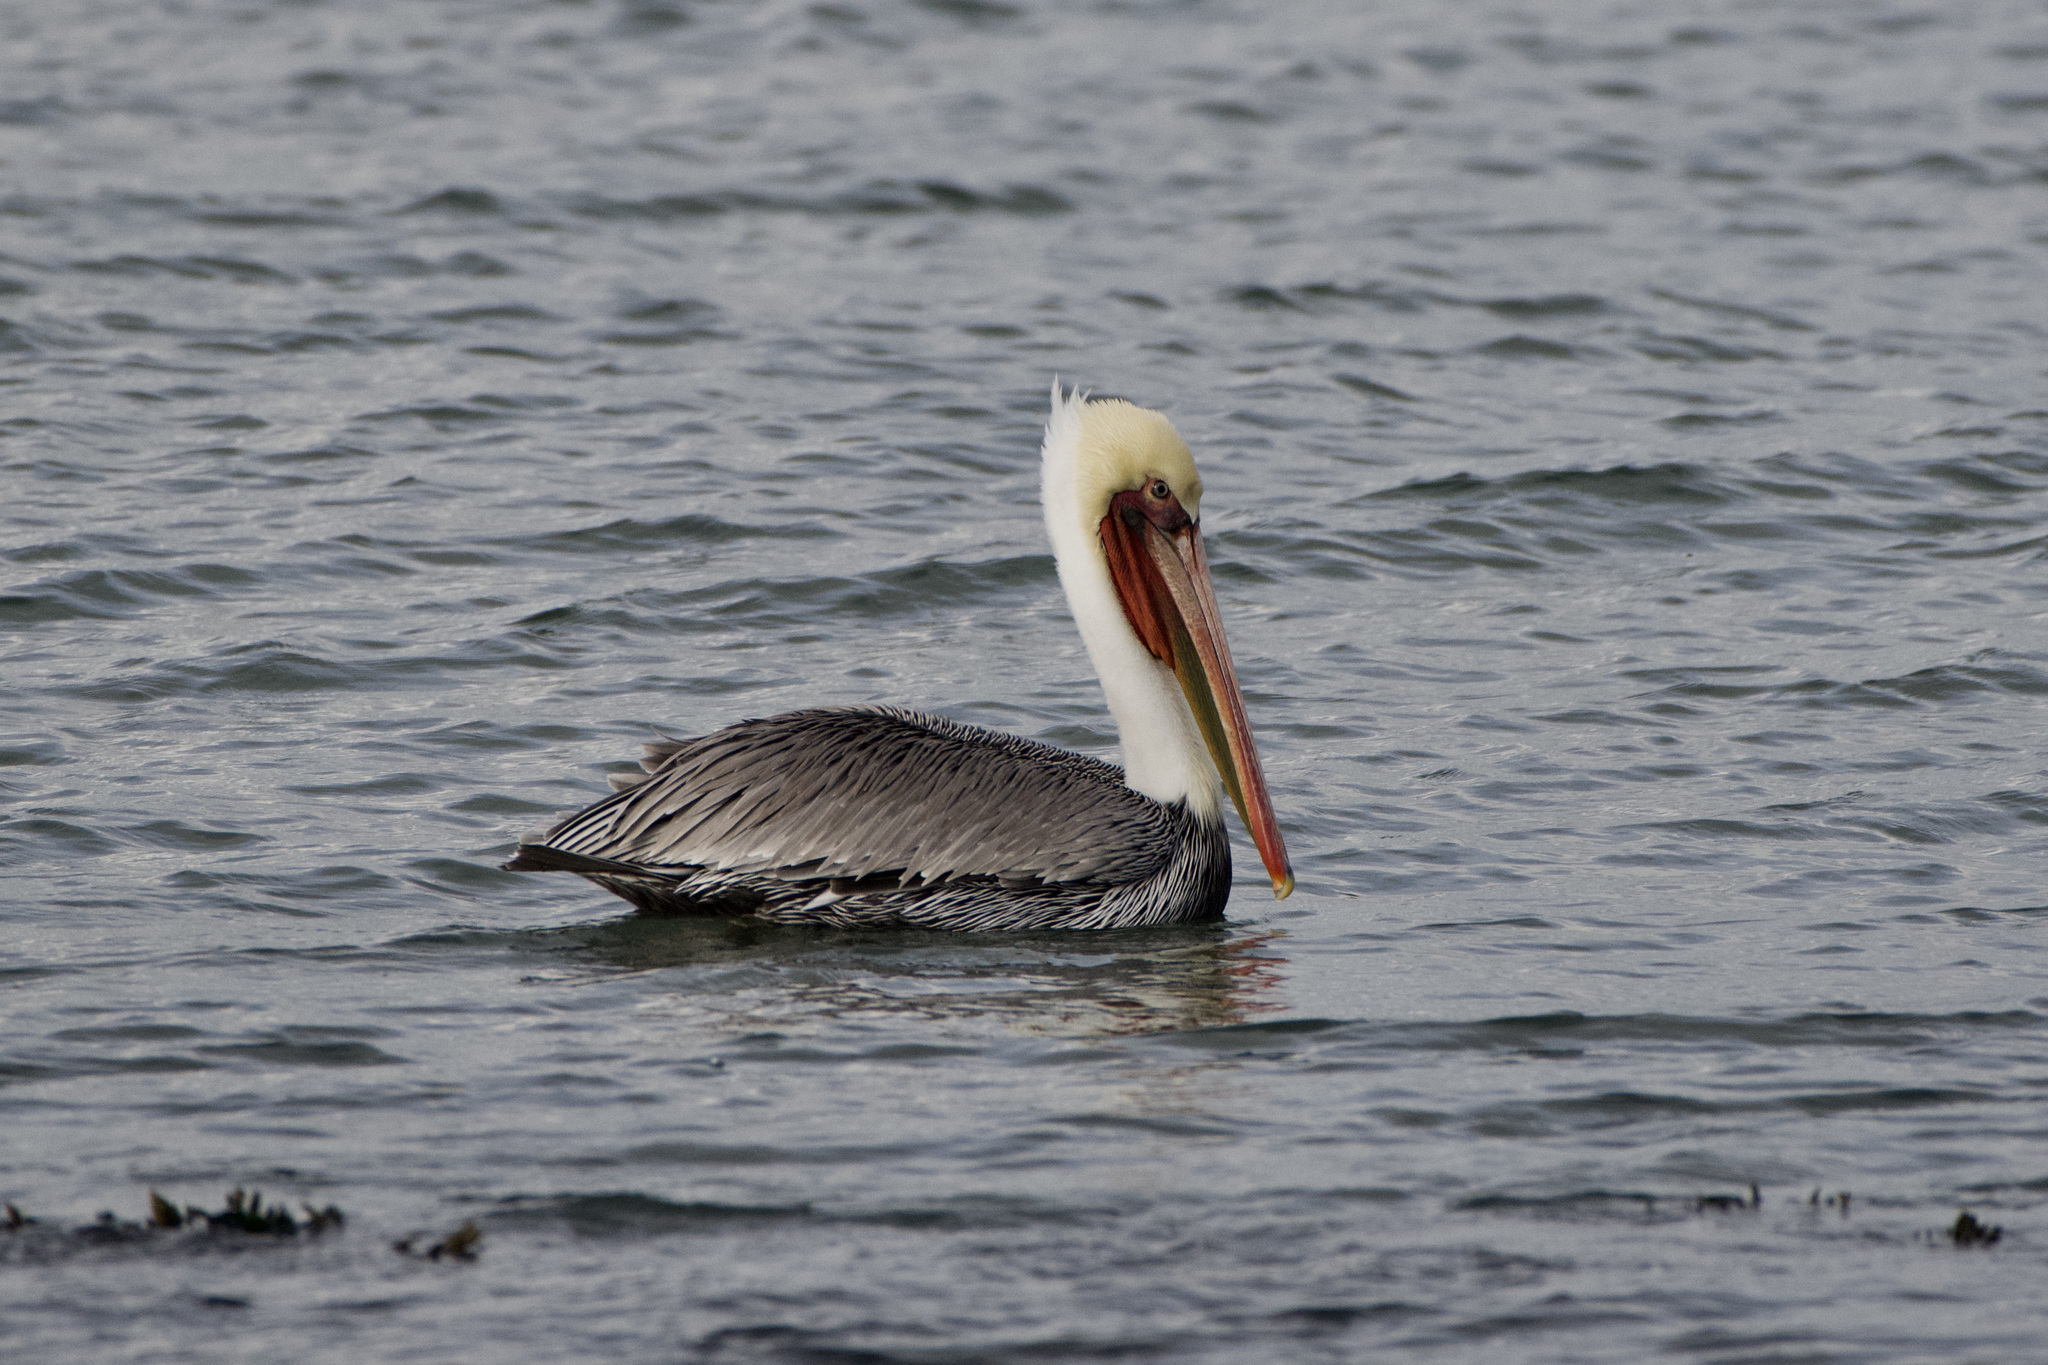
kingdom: Animalia
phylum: Chordata
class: Aves
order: Pelecaniformes
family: Pelecanidae
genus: Pelecanus
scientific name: Pelecanus occidentalis
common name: Brown pelican
